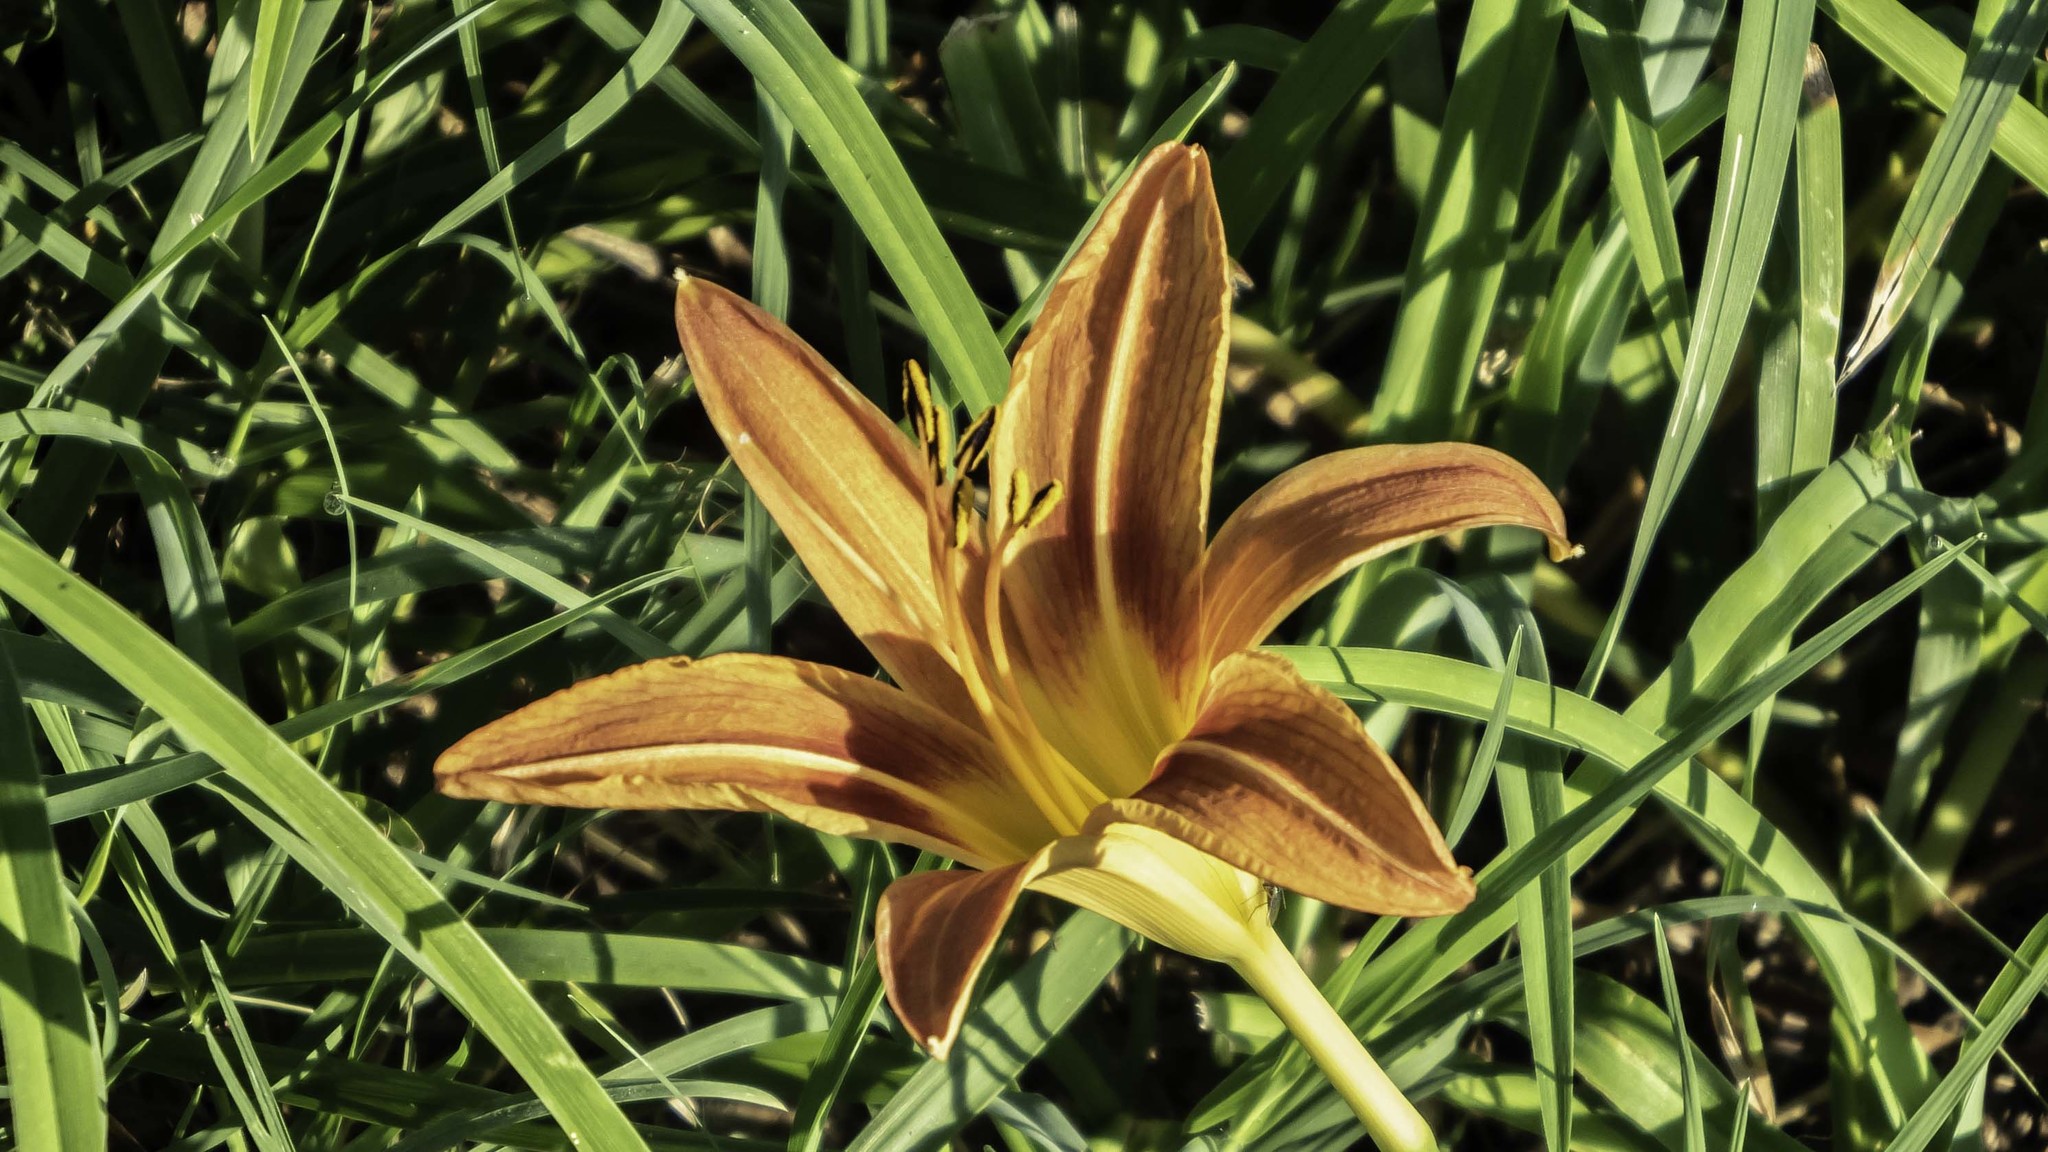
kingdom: Plantae
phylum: Tracheophyta
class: Liliopsida
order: Asparagales
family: Asphodelaceae
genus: Hemerocallis
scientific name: Hemerocallis fulva
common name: Orange day-lily
